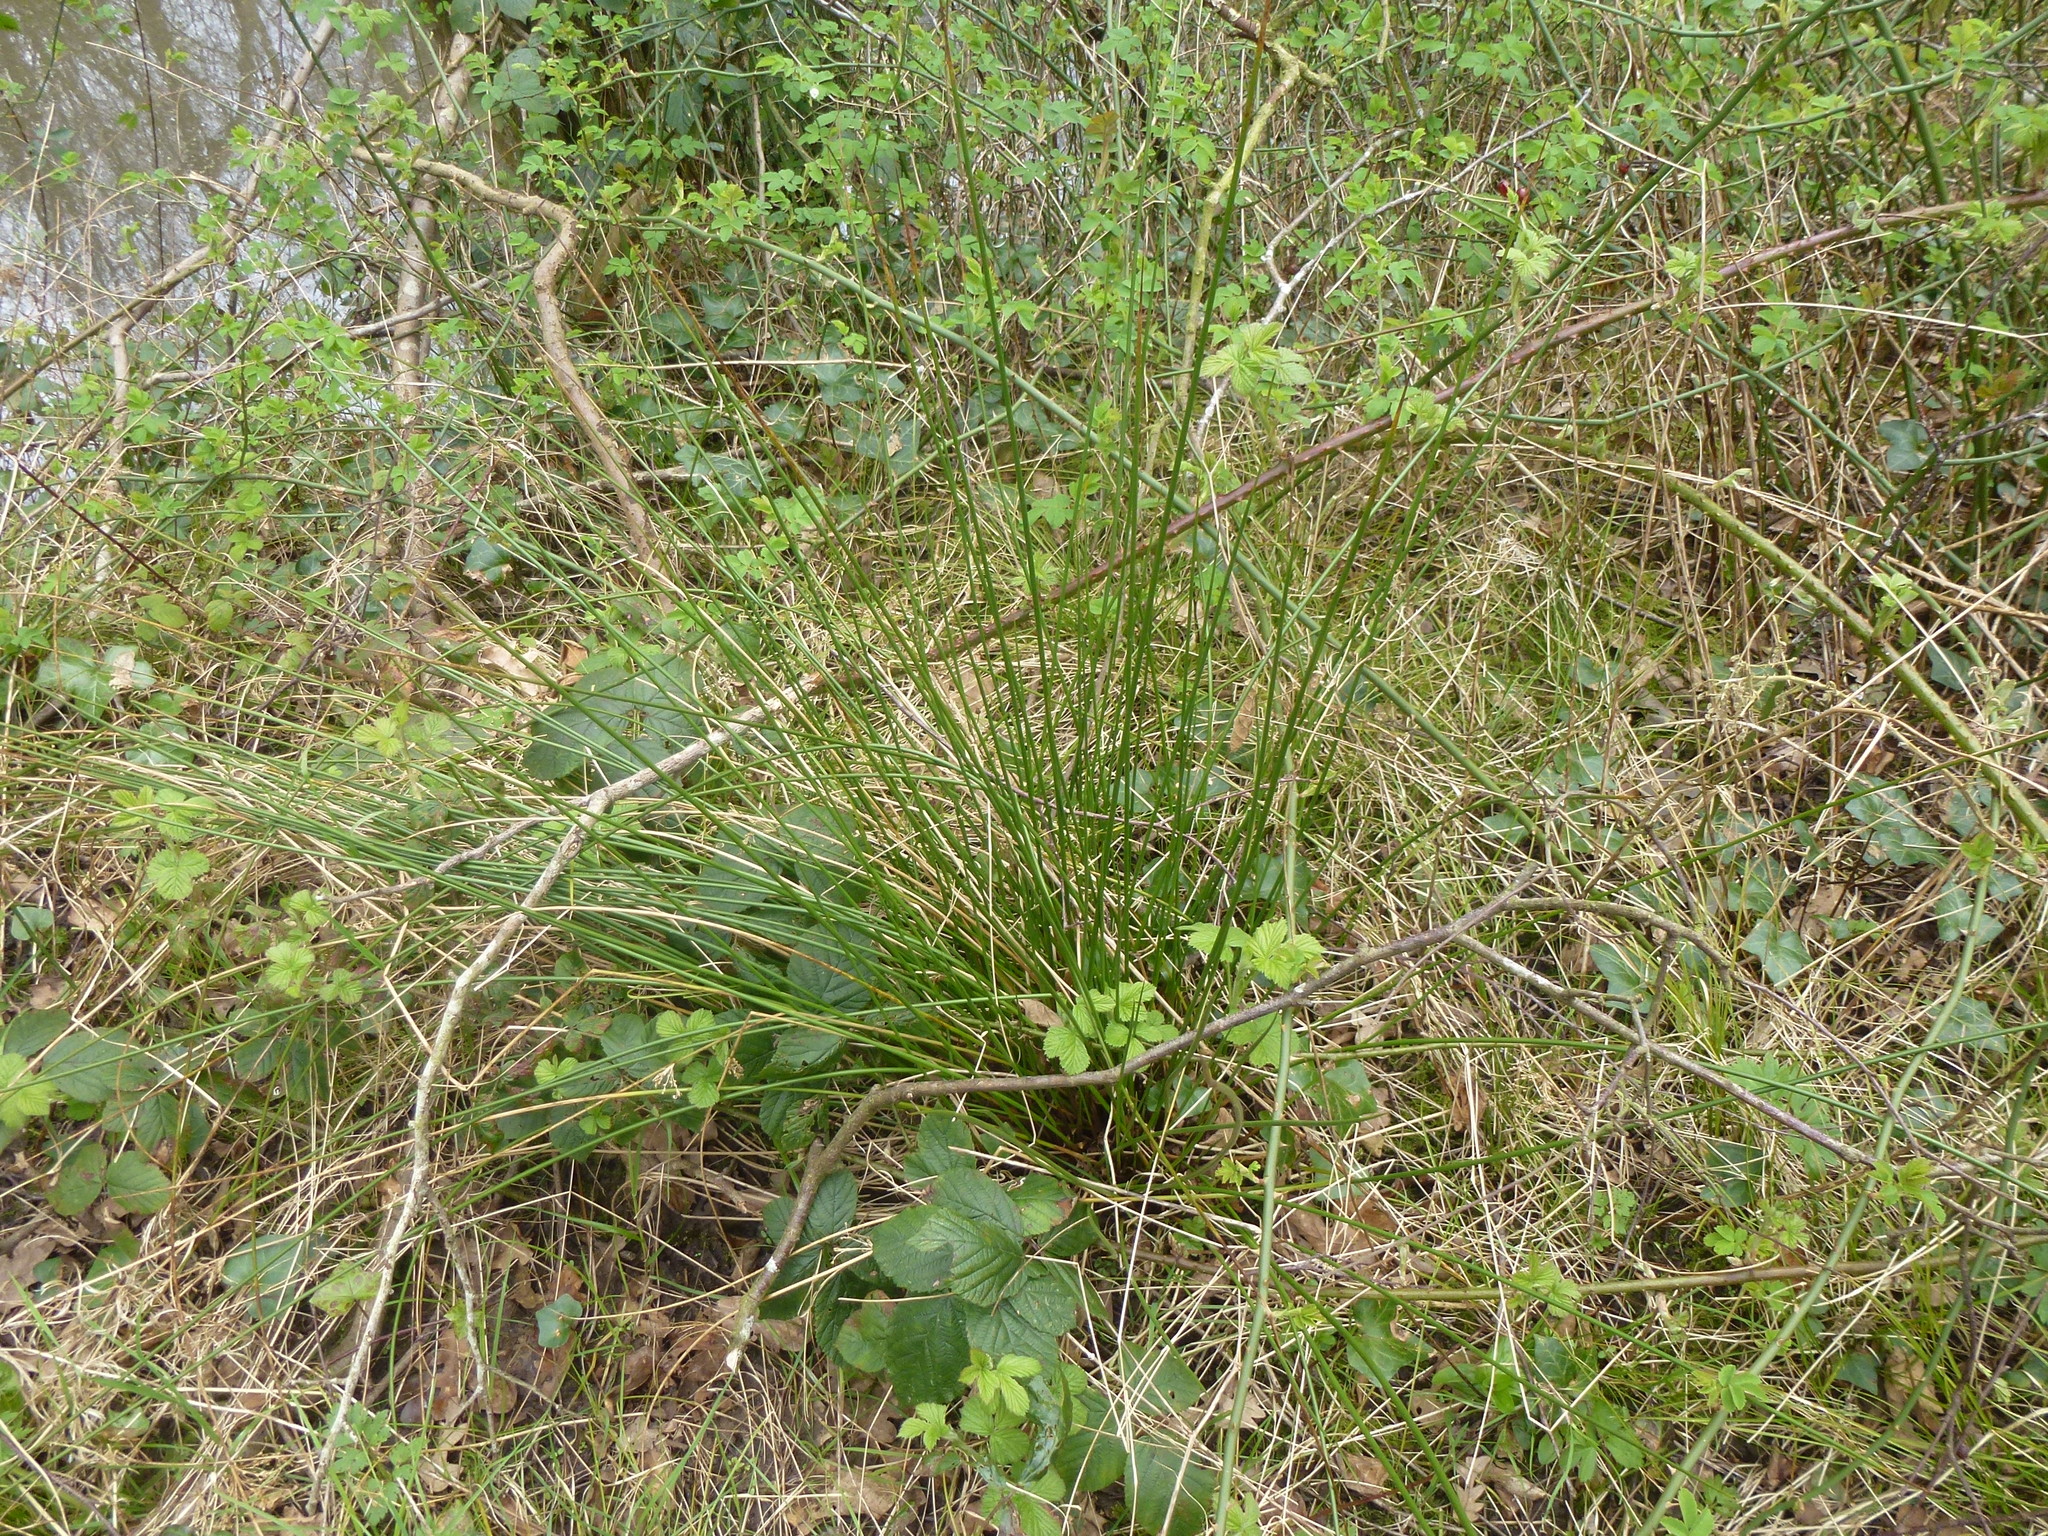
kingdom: Plantae
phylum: Tracheophyta
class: Liliopsida
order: Poales
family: Juncaceae
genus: Juncus
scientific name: Juncus effusus
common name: Soft rush
